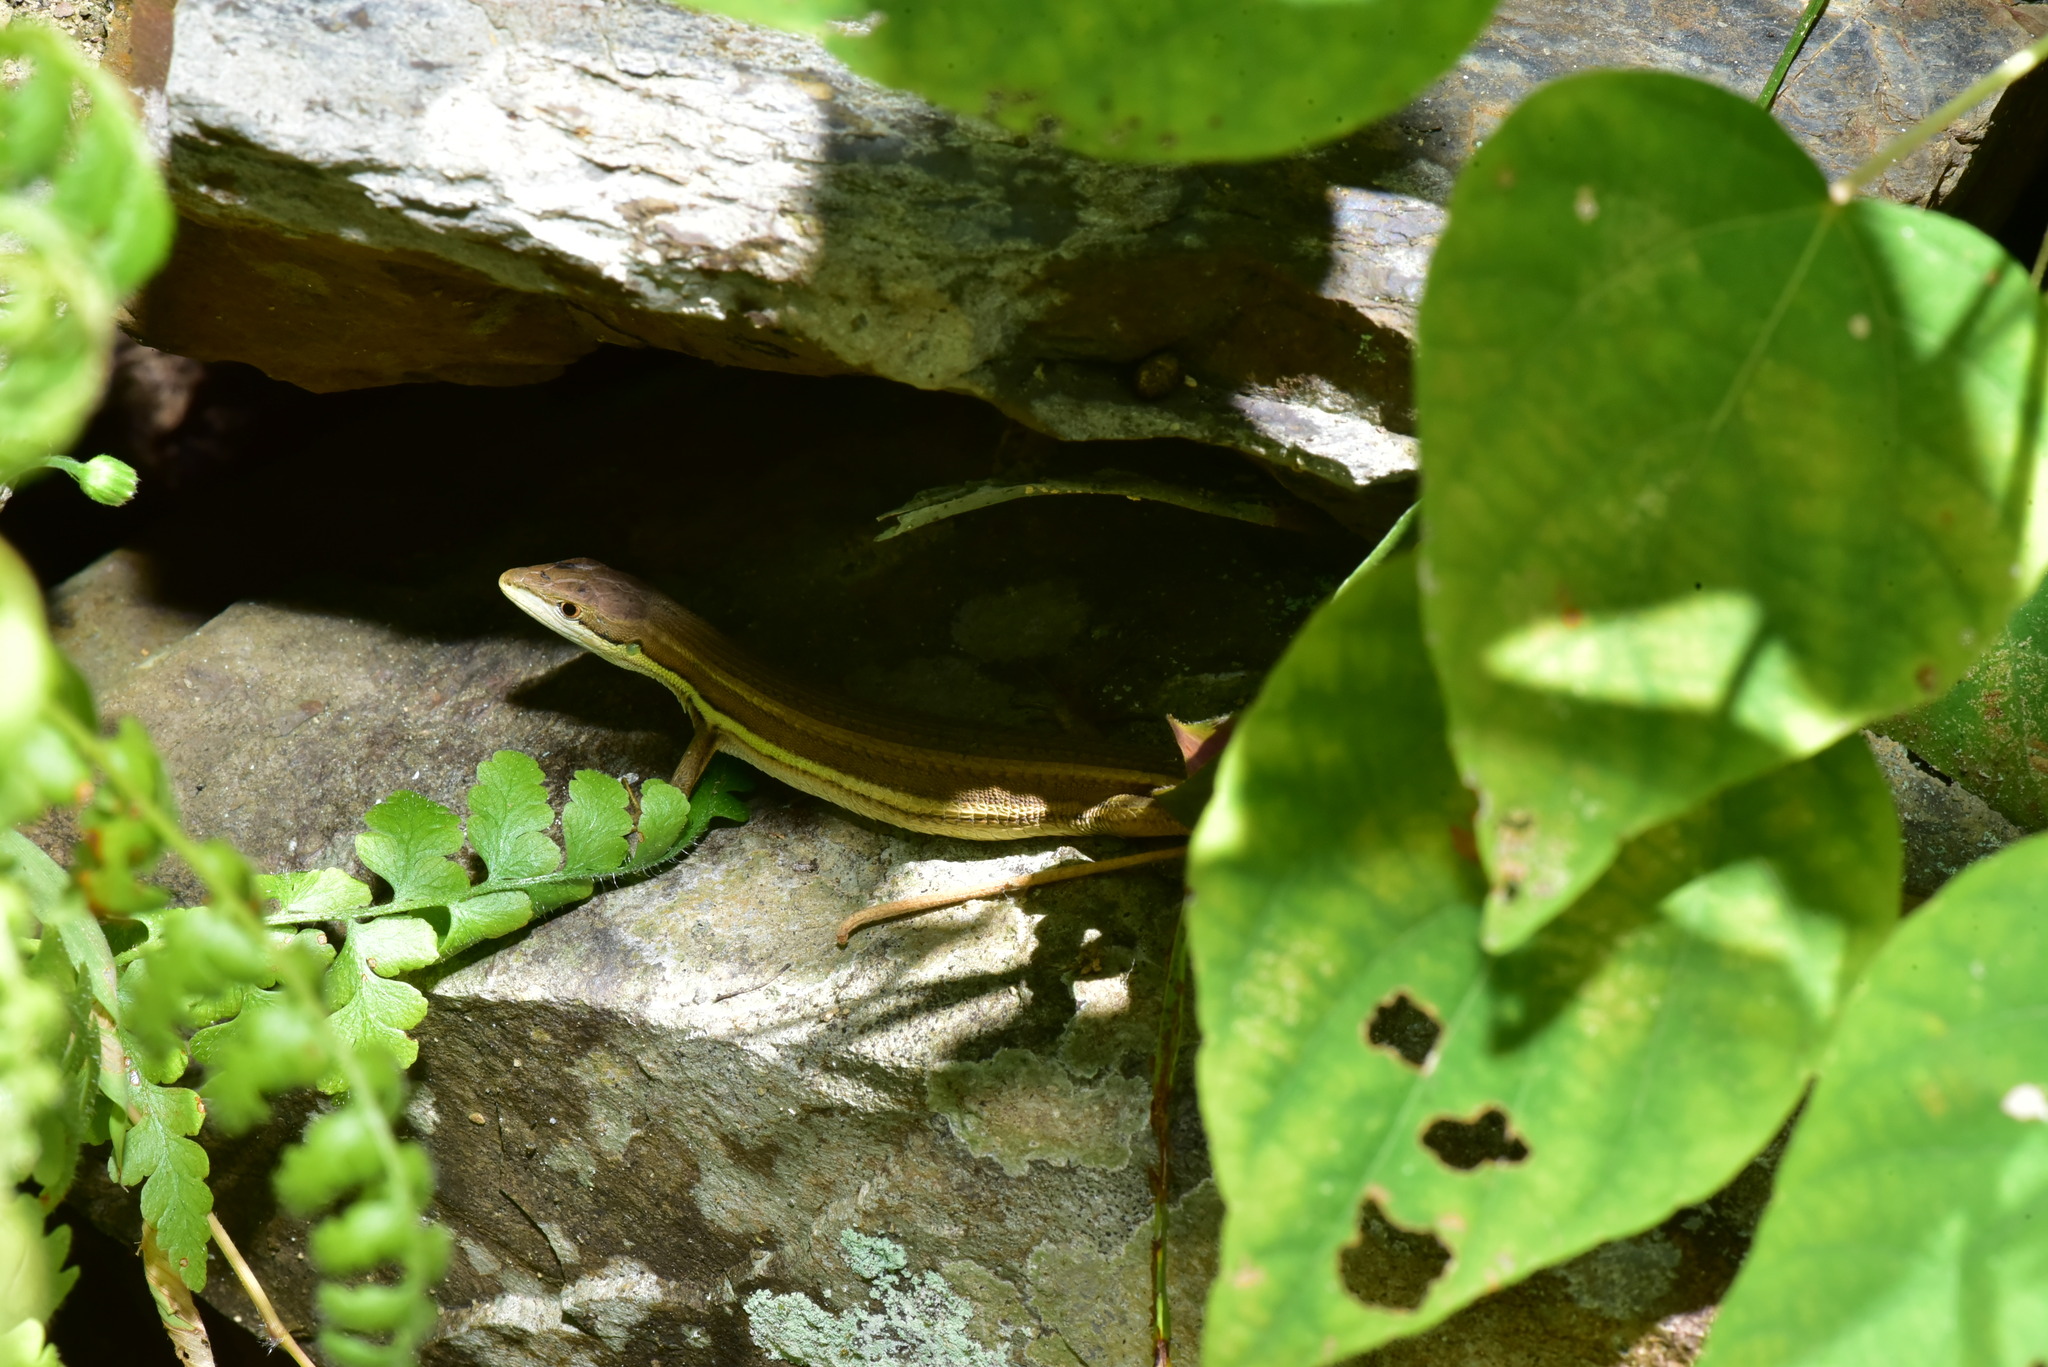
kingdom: Animalia
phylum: Chordata
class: Squamata
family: Lacertidae
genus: Takydromus
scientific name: Takydromus viridipunctatus
